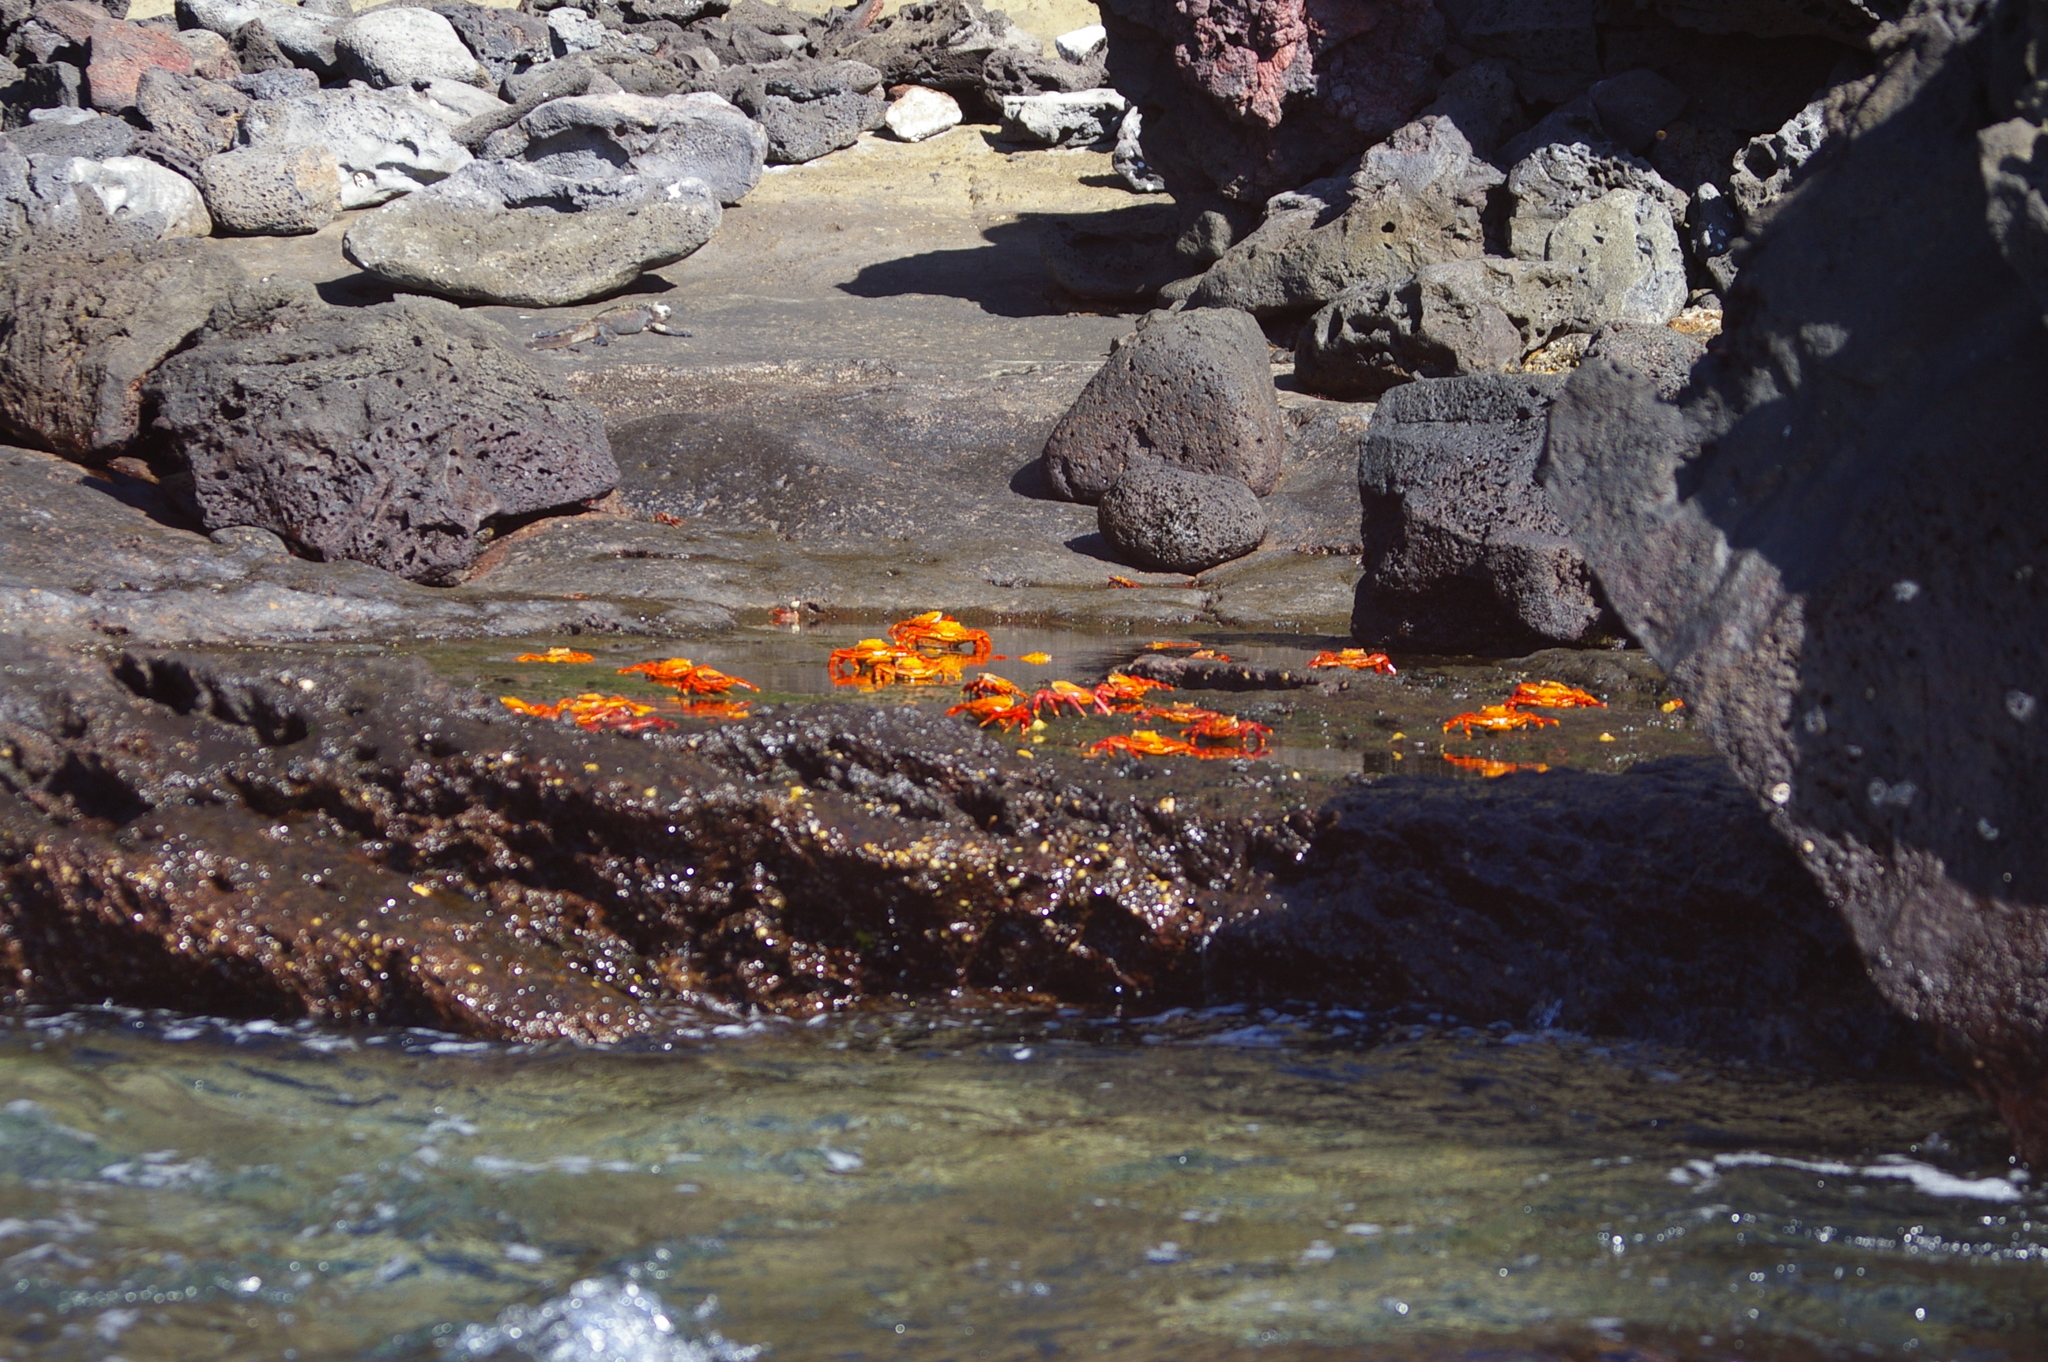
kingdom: Animalia
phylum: Arthropoda
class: Malacostraca
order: Decapoda
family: Grapsidae
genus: Grapsus
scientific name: Grapsus grapsus
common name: Sally lightfoot
